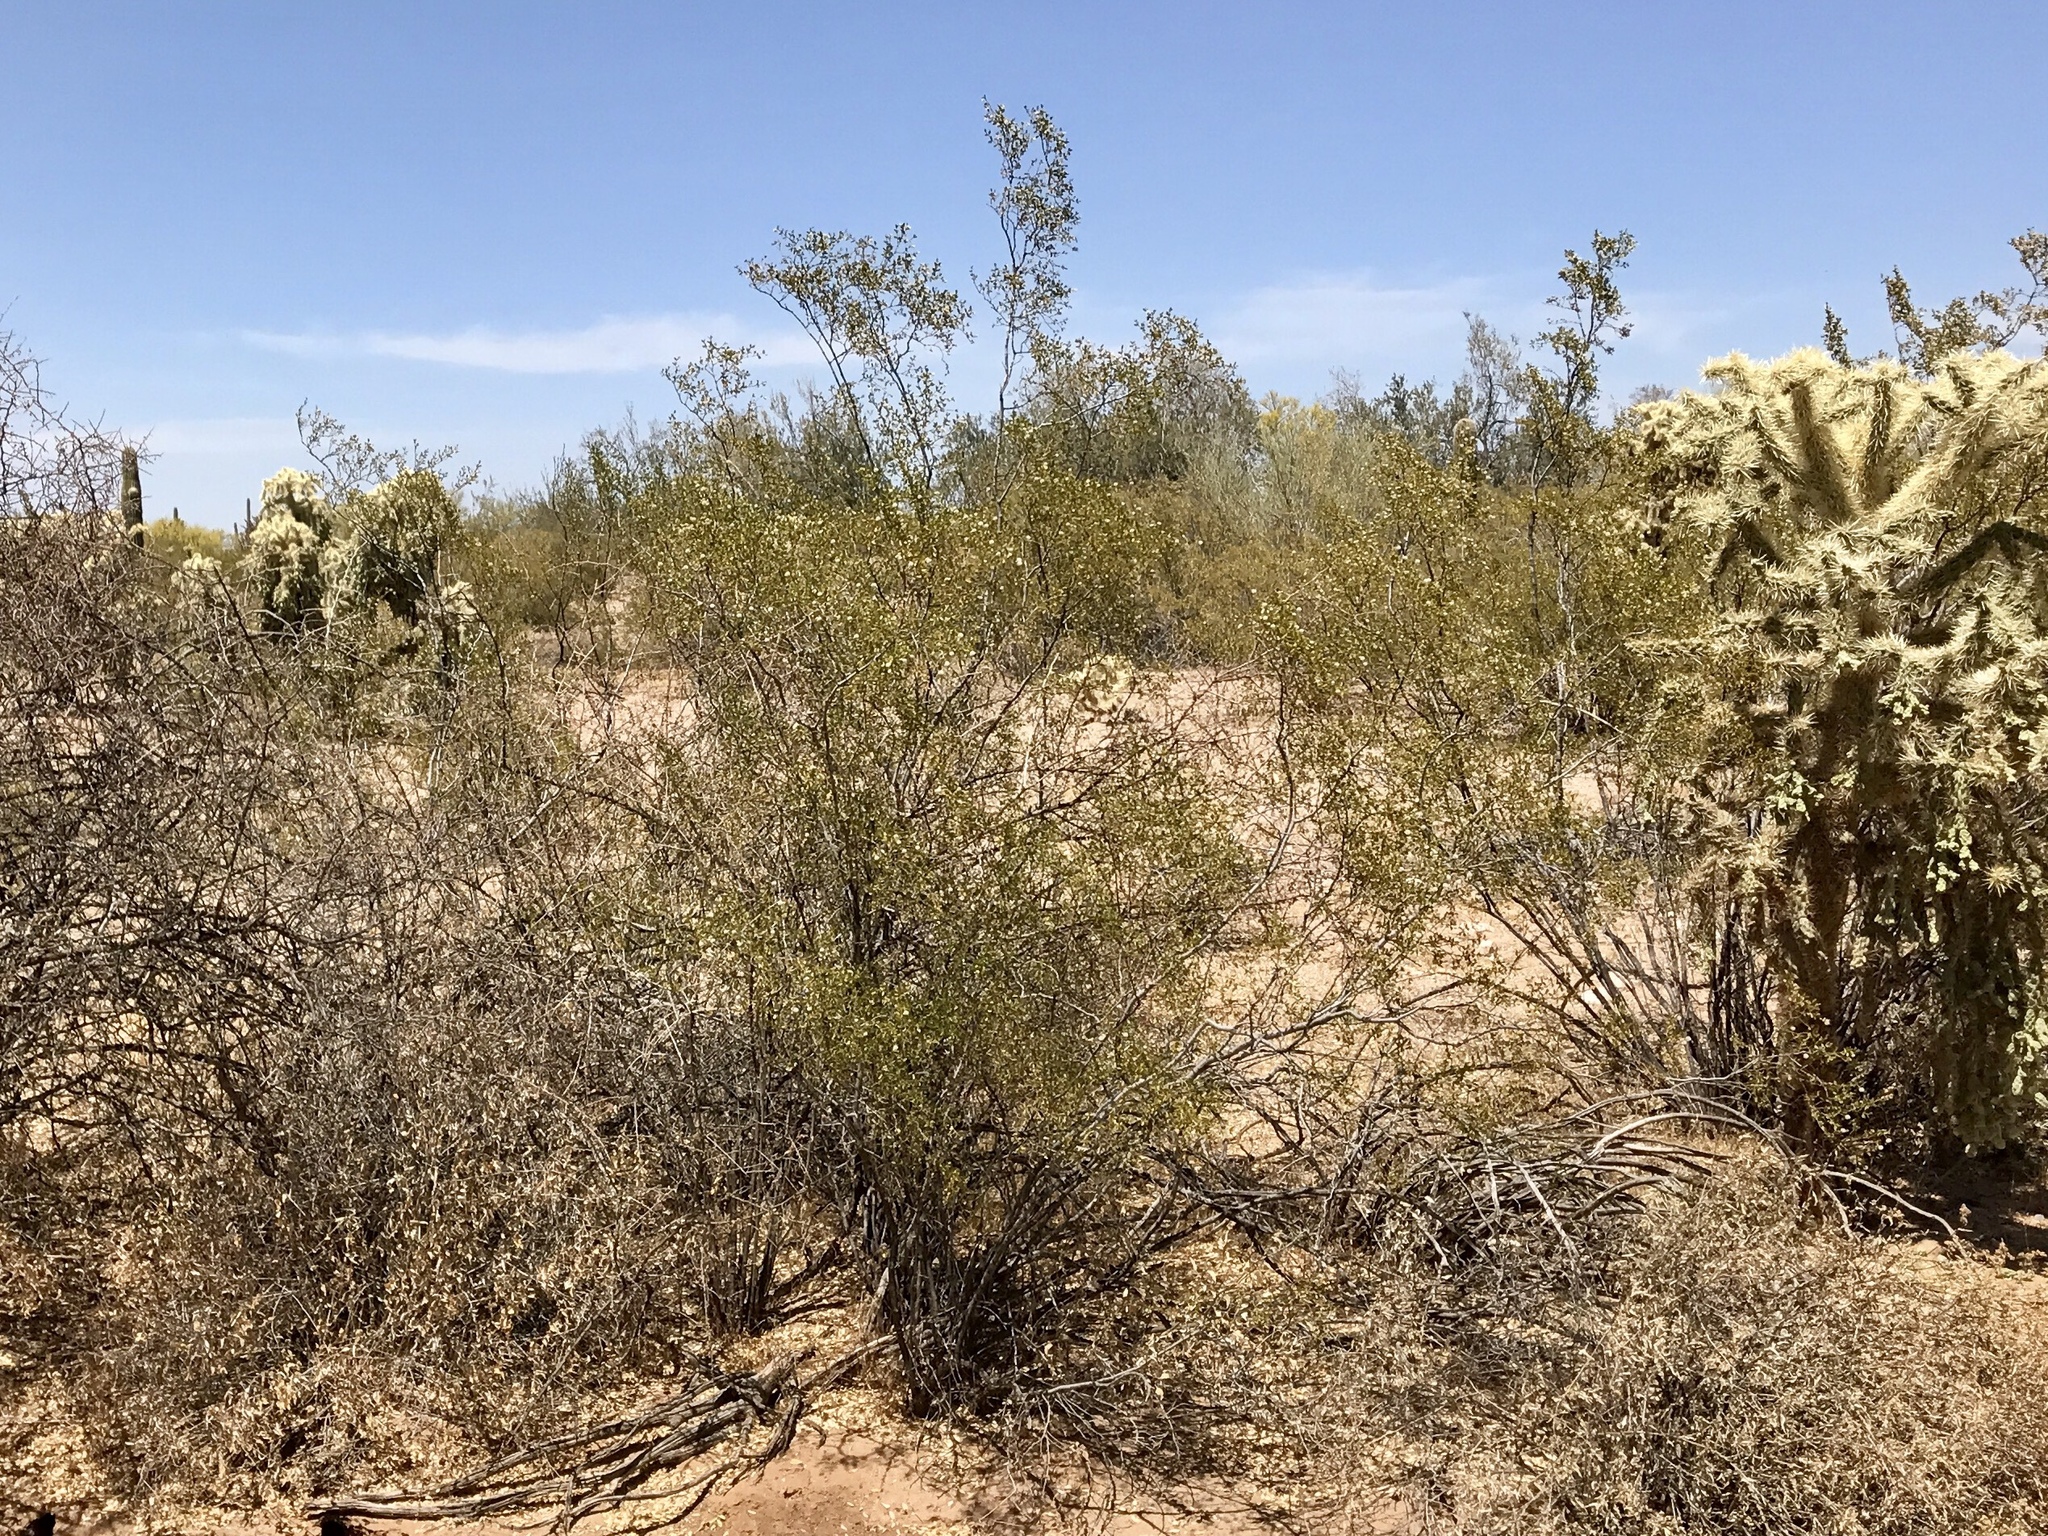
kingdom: Plantae
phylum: Tracheophyta
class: Magnoliopsida
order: Zygophyllales
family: Zygophyllaceae
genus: Larrea
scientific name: Larrea tridentata
